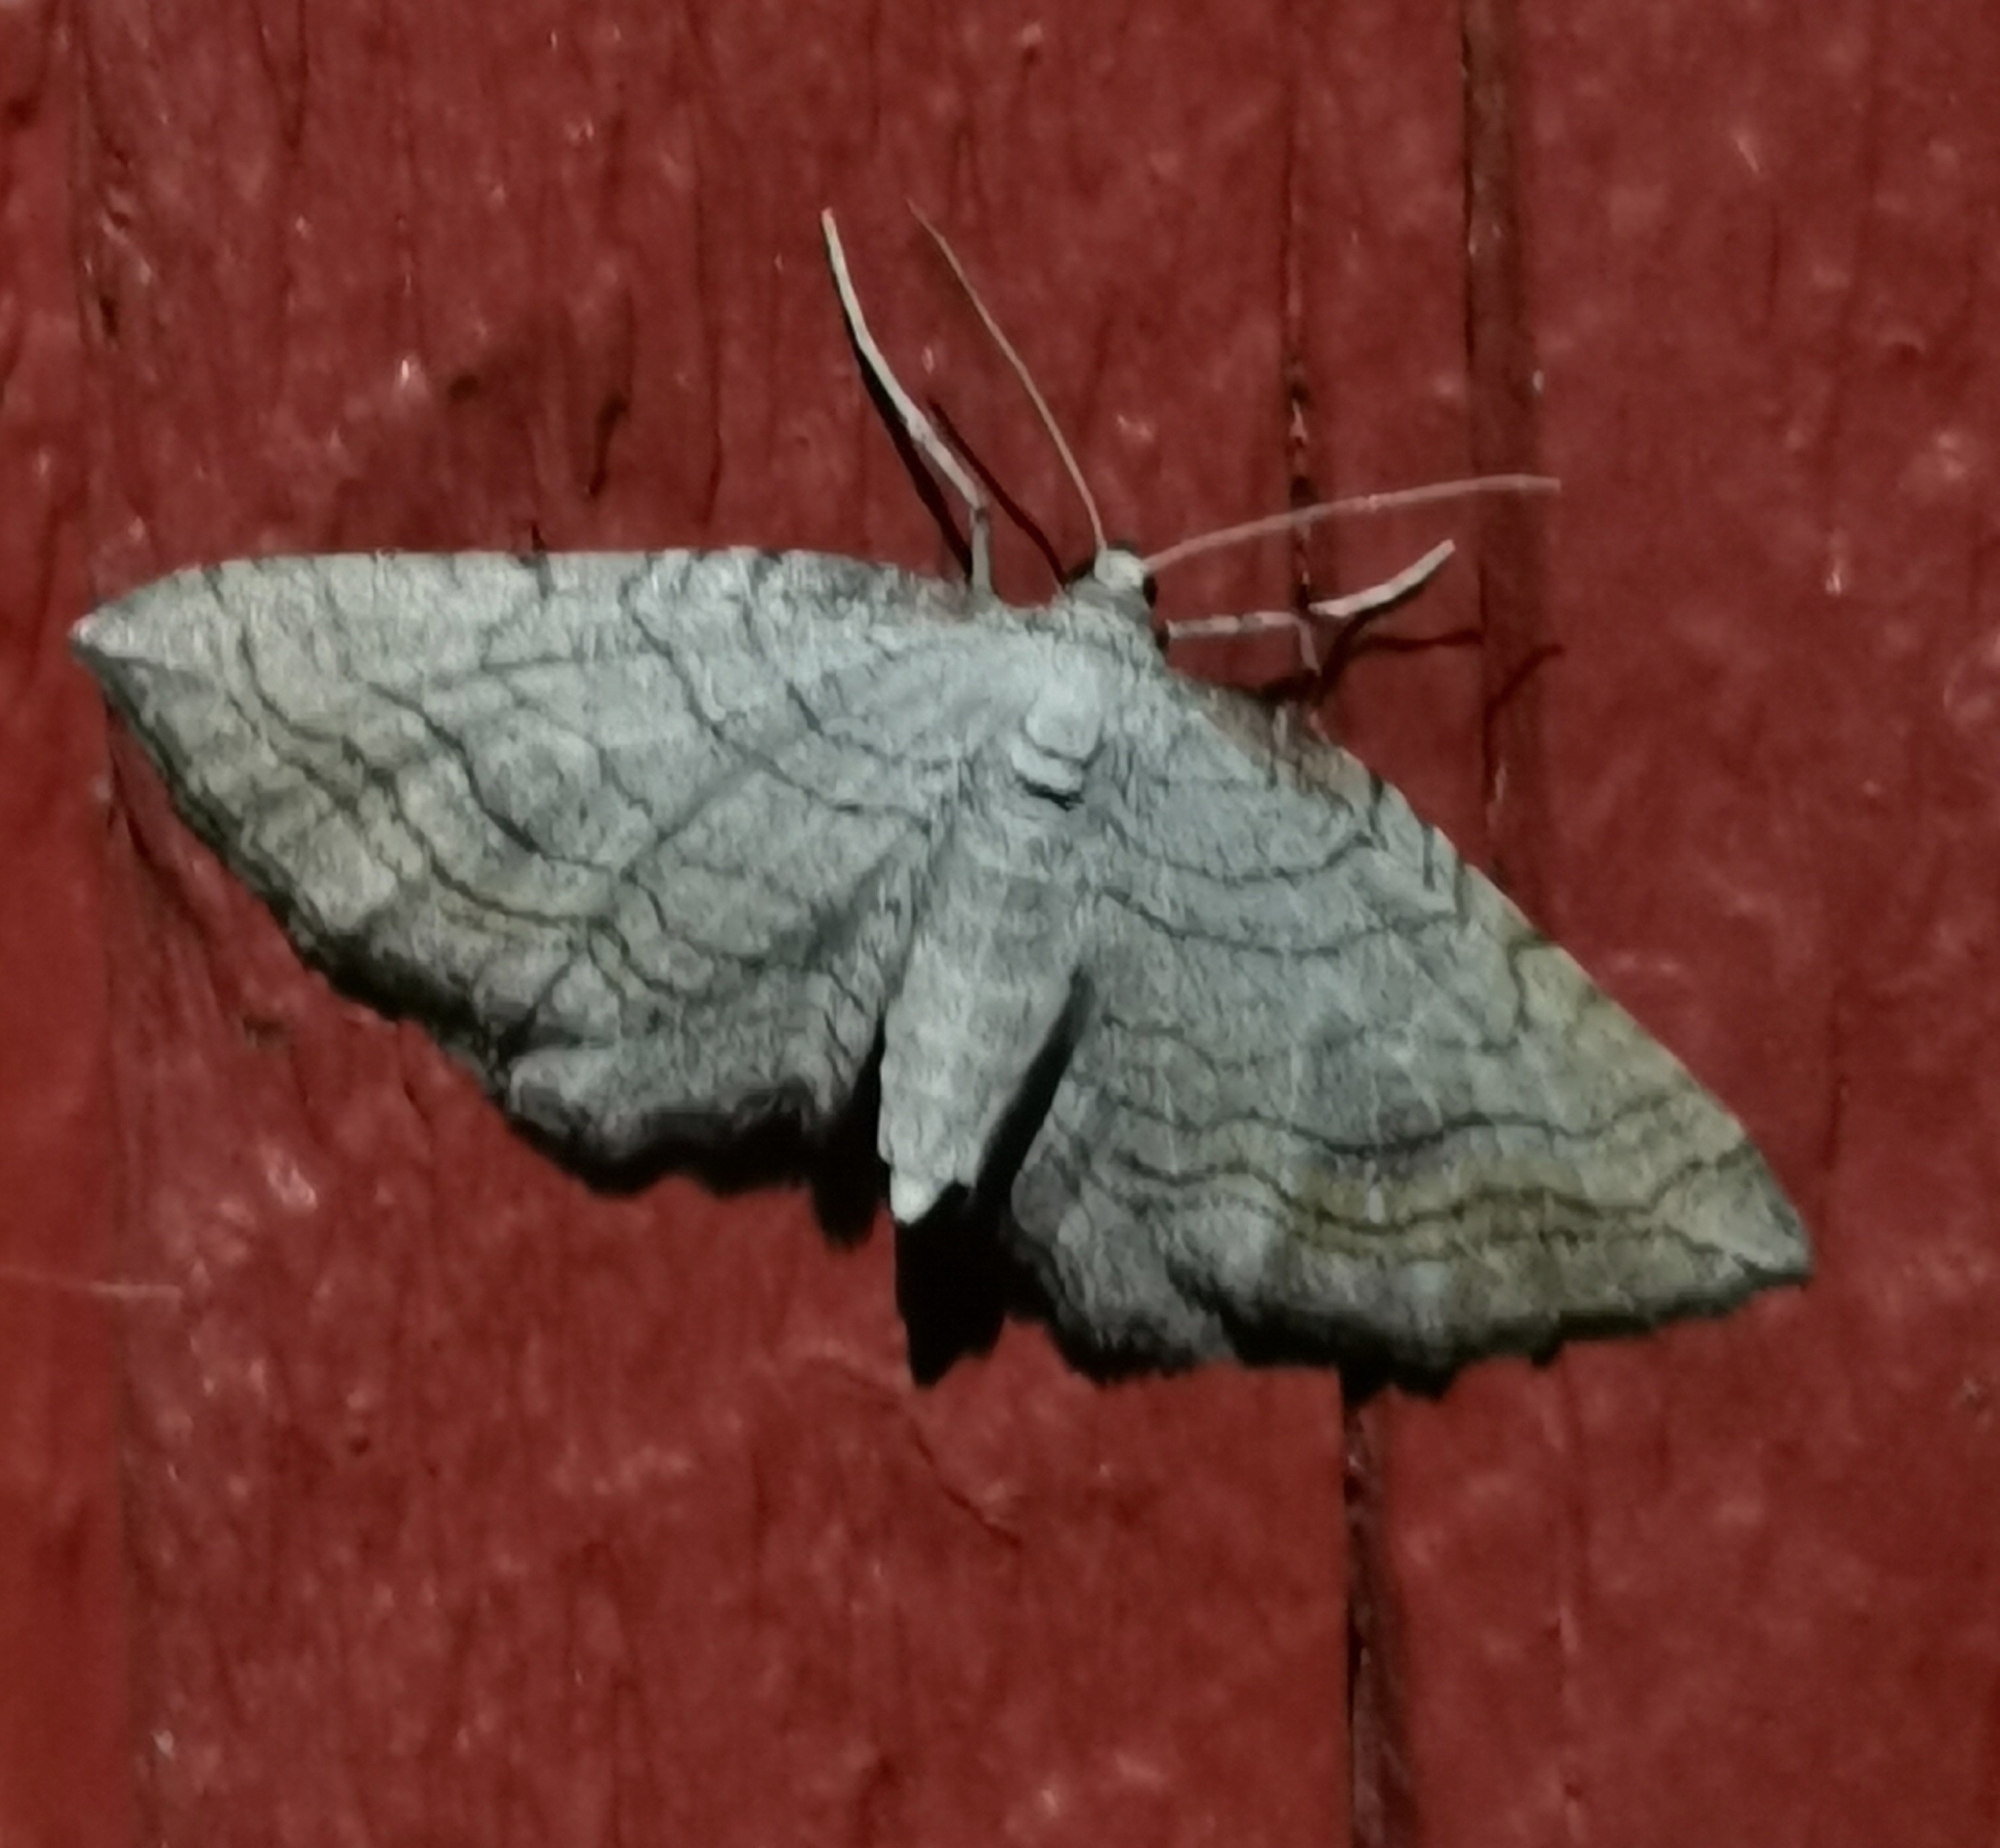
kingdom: Animalia
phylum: Arthropoda
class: Insecta
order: Lepidoptera
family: Geometridae
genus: Coenocalpe
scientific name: Coenocalpe lapidata
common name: Slender-striped rufous
